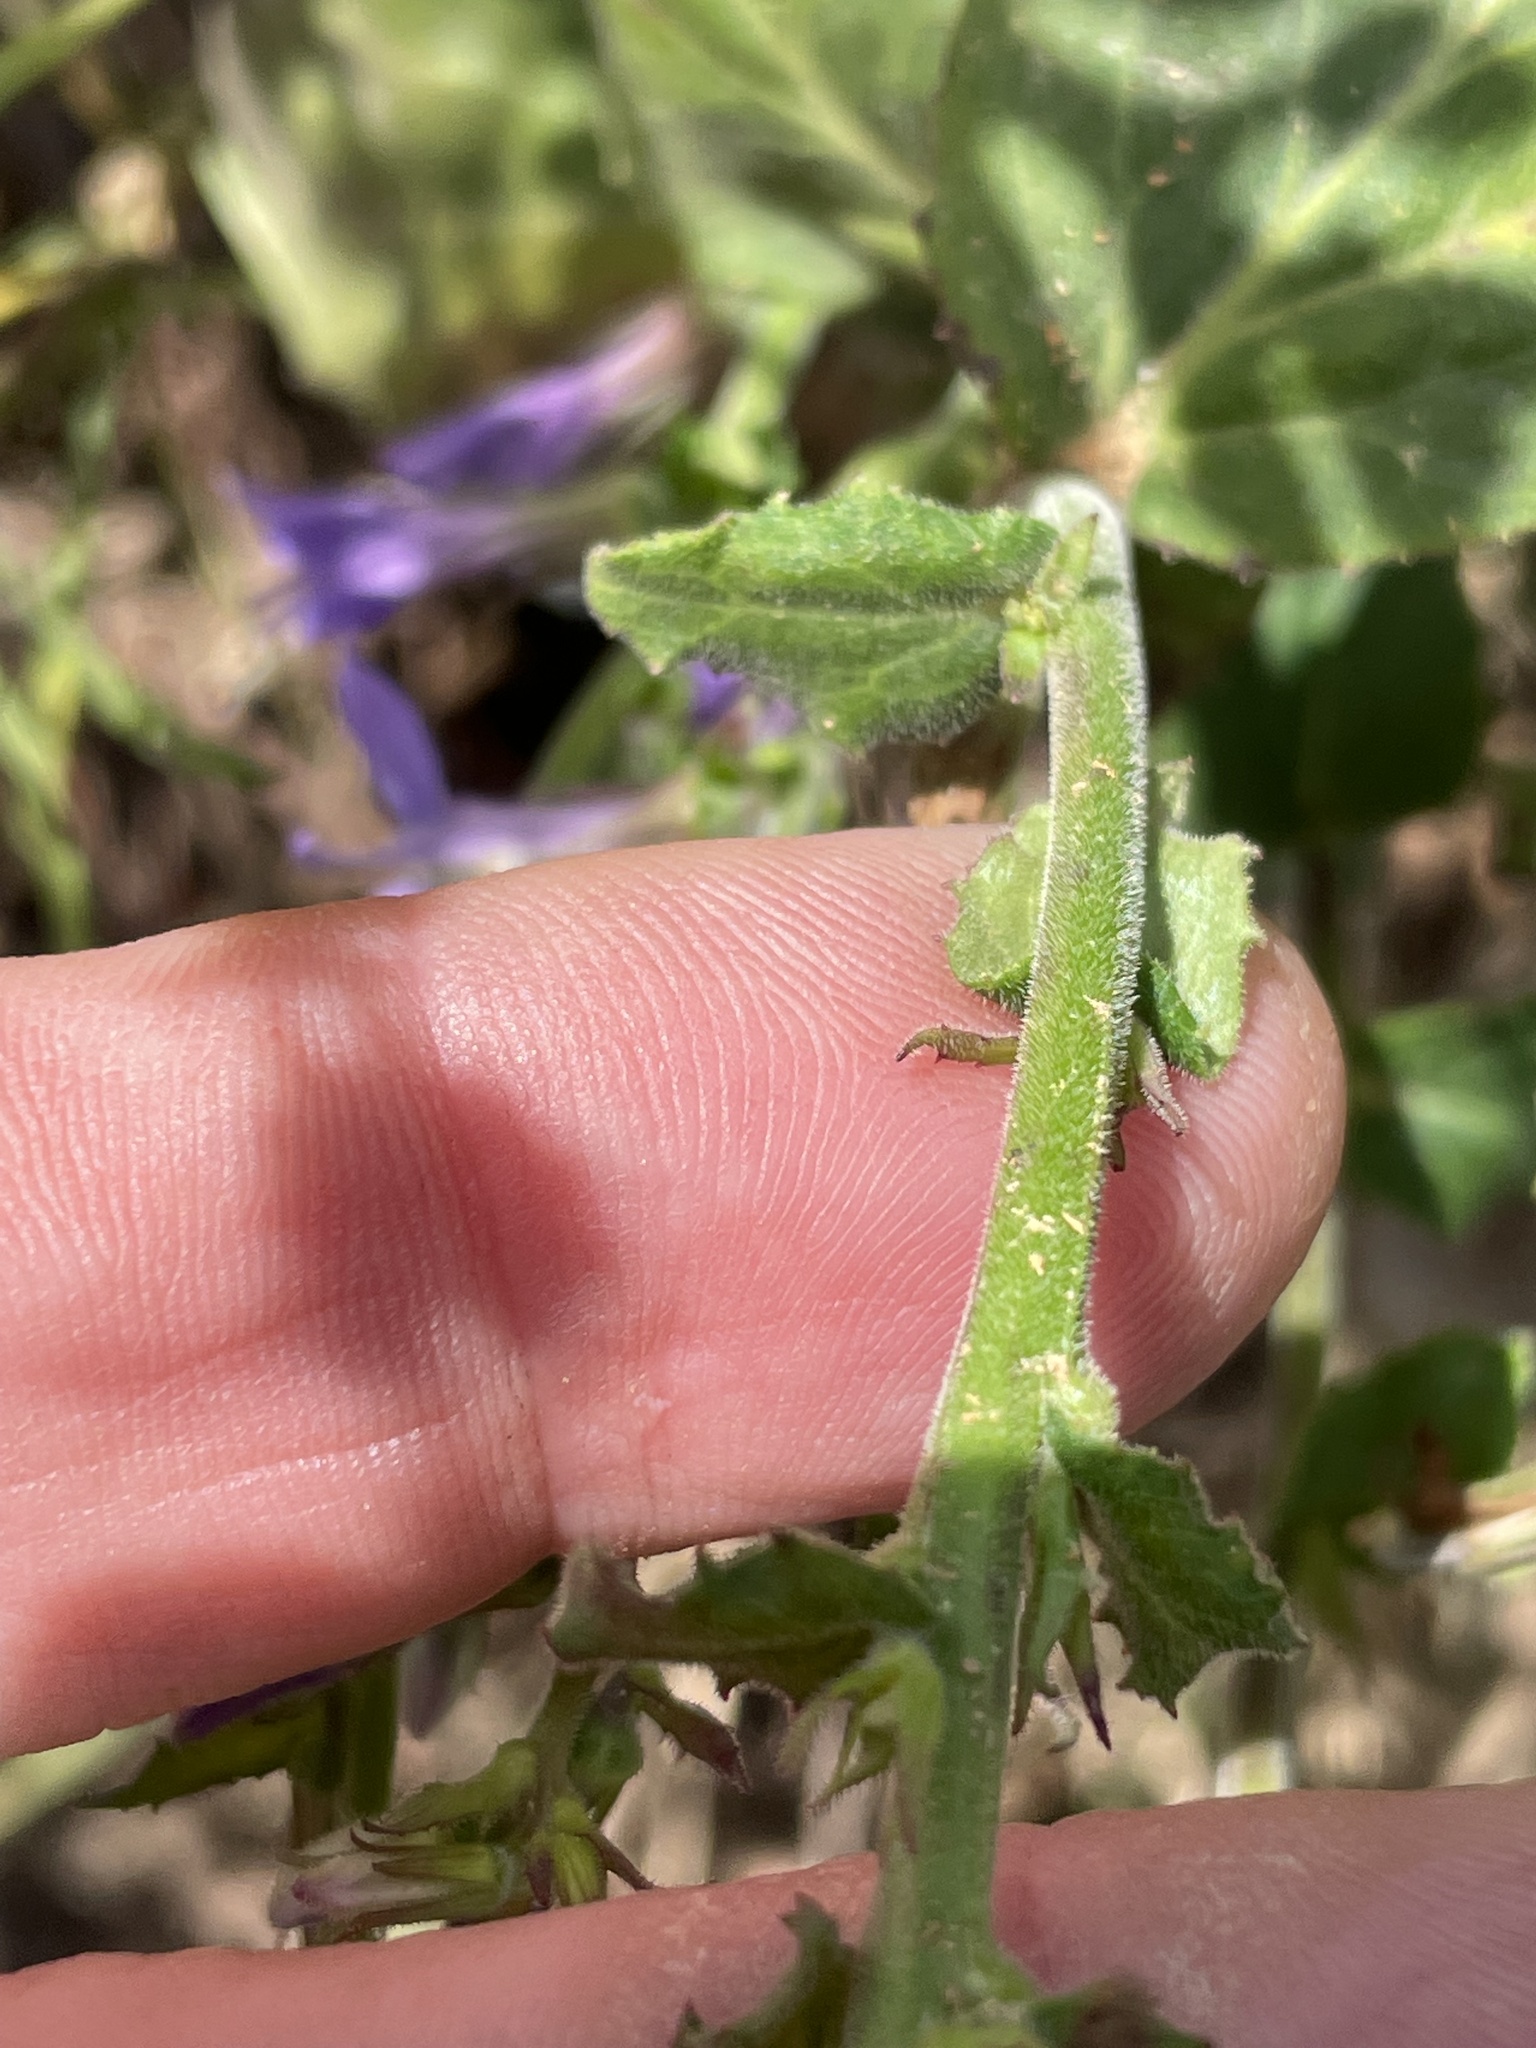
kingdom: Plantae
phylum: Tracheophyta
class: Magnoliopsida
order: Asterales
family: Campanulaceae
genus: Lobelia
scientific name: Lobelia puberula
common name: Purple dewdrop
